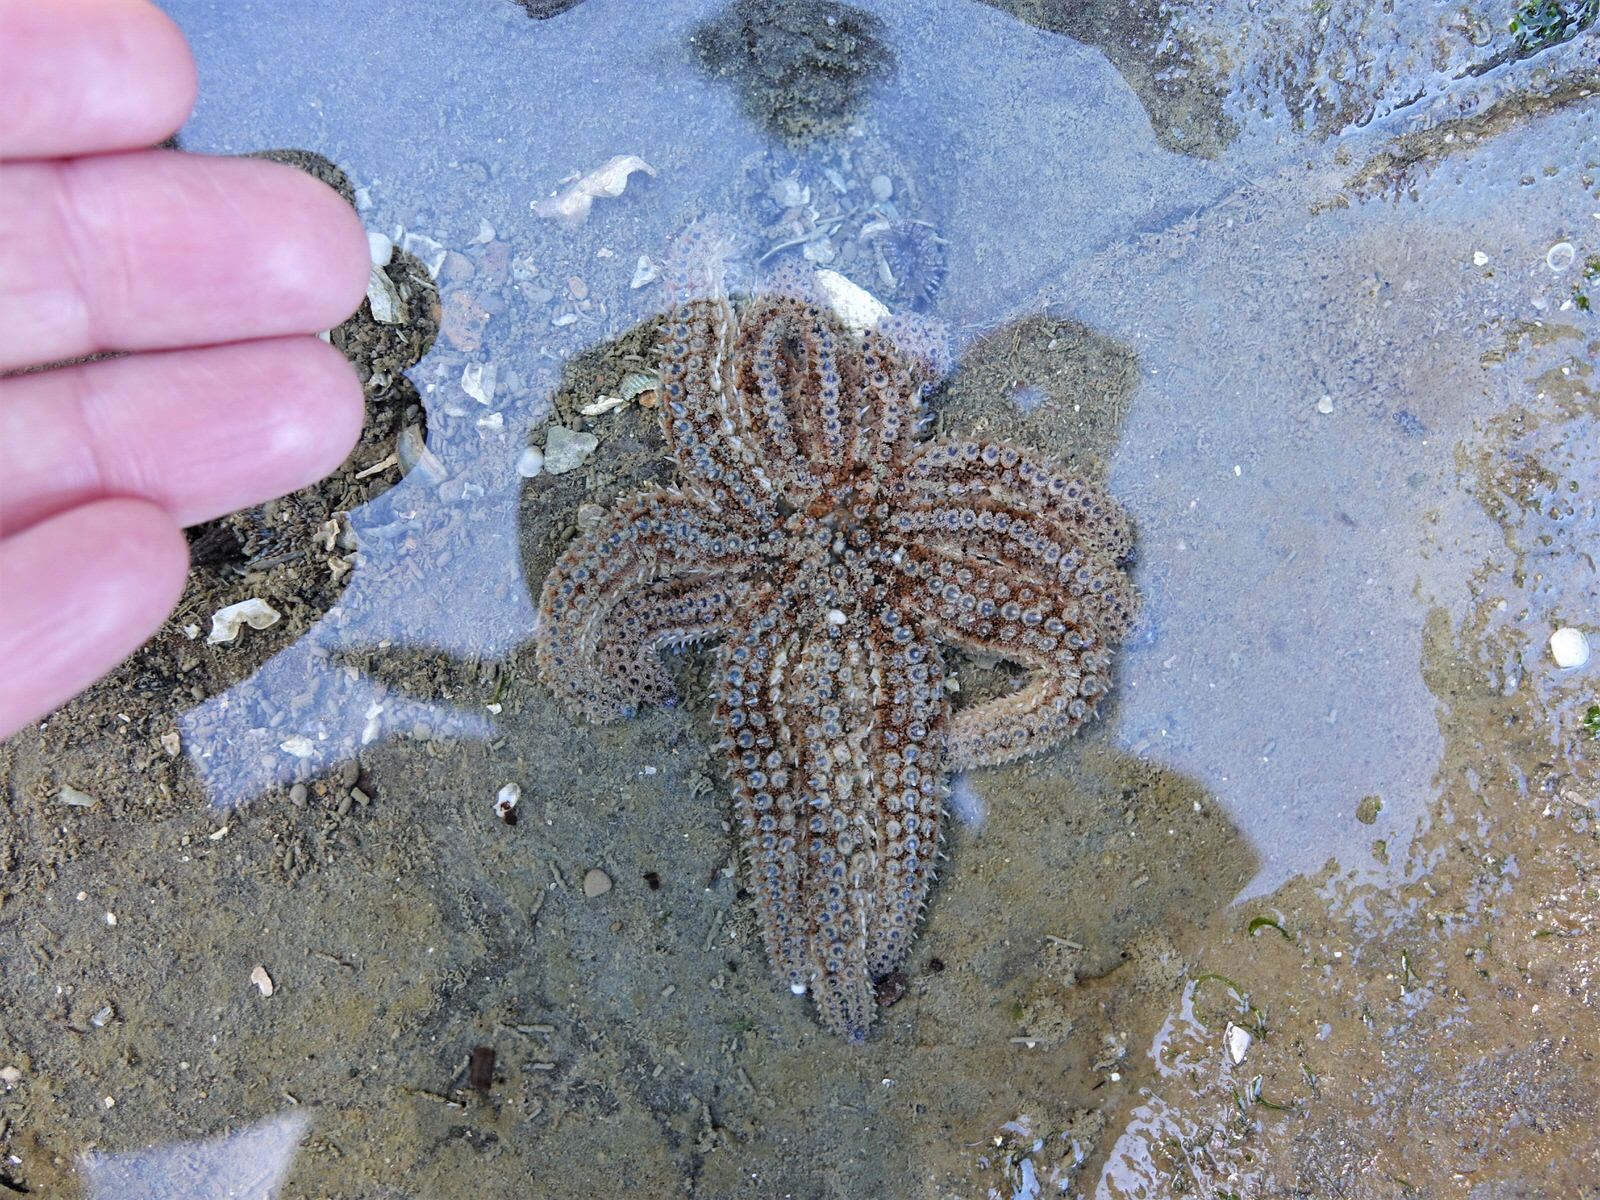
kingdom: Animalia
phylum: Echinodermata
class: Asteroidea
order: Forcipulatida
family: Asteriidae
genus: Coscinasterias
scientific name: Coscinasterias muricata
